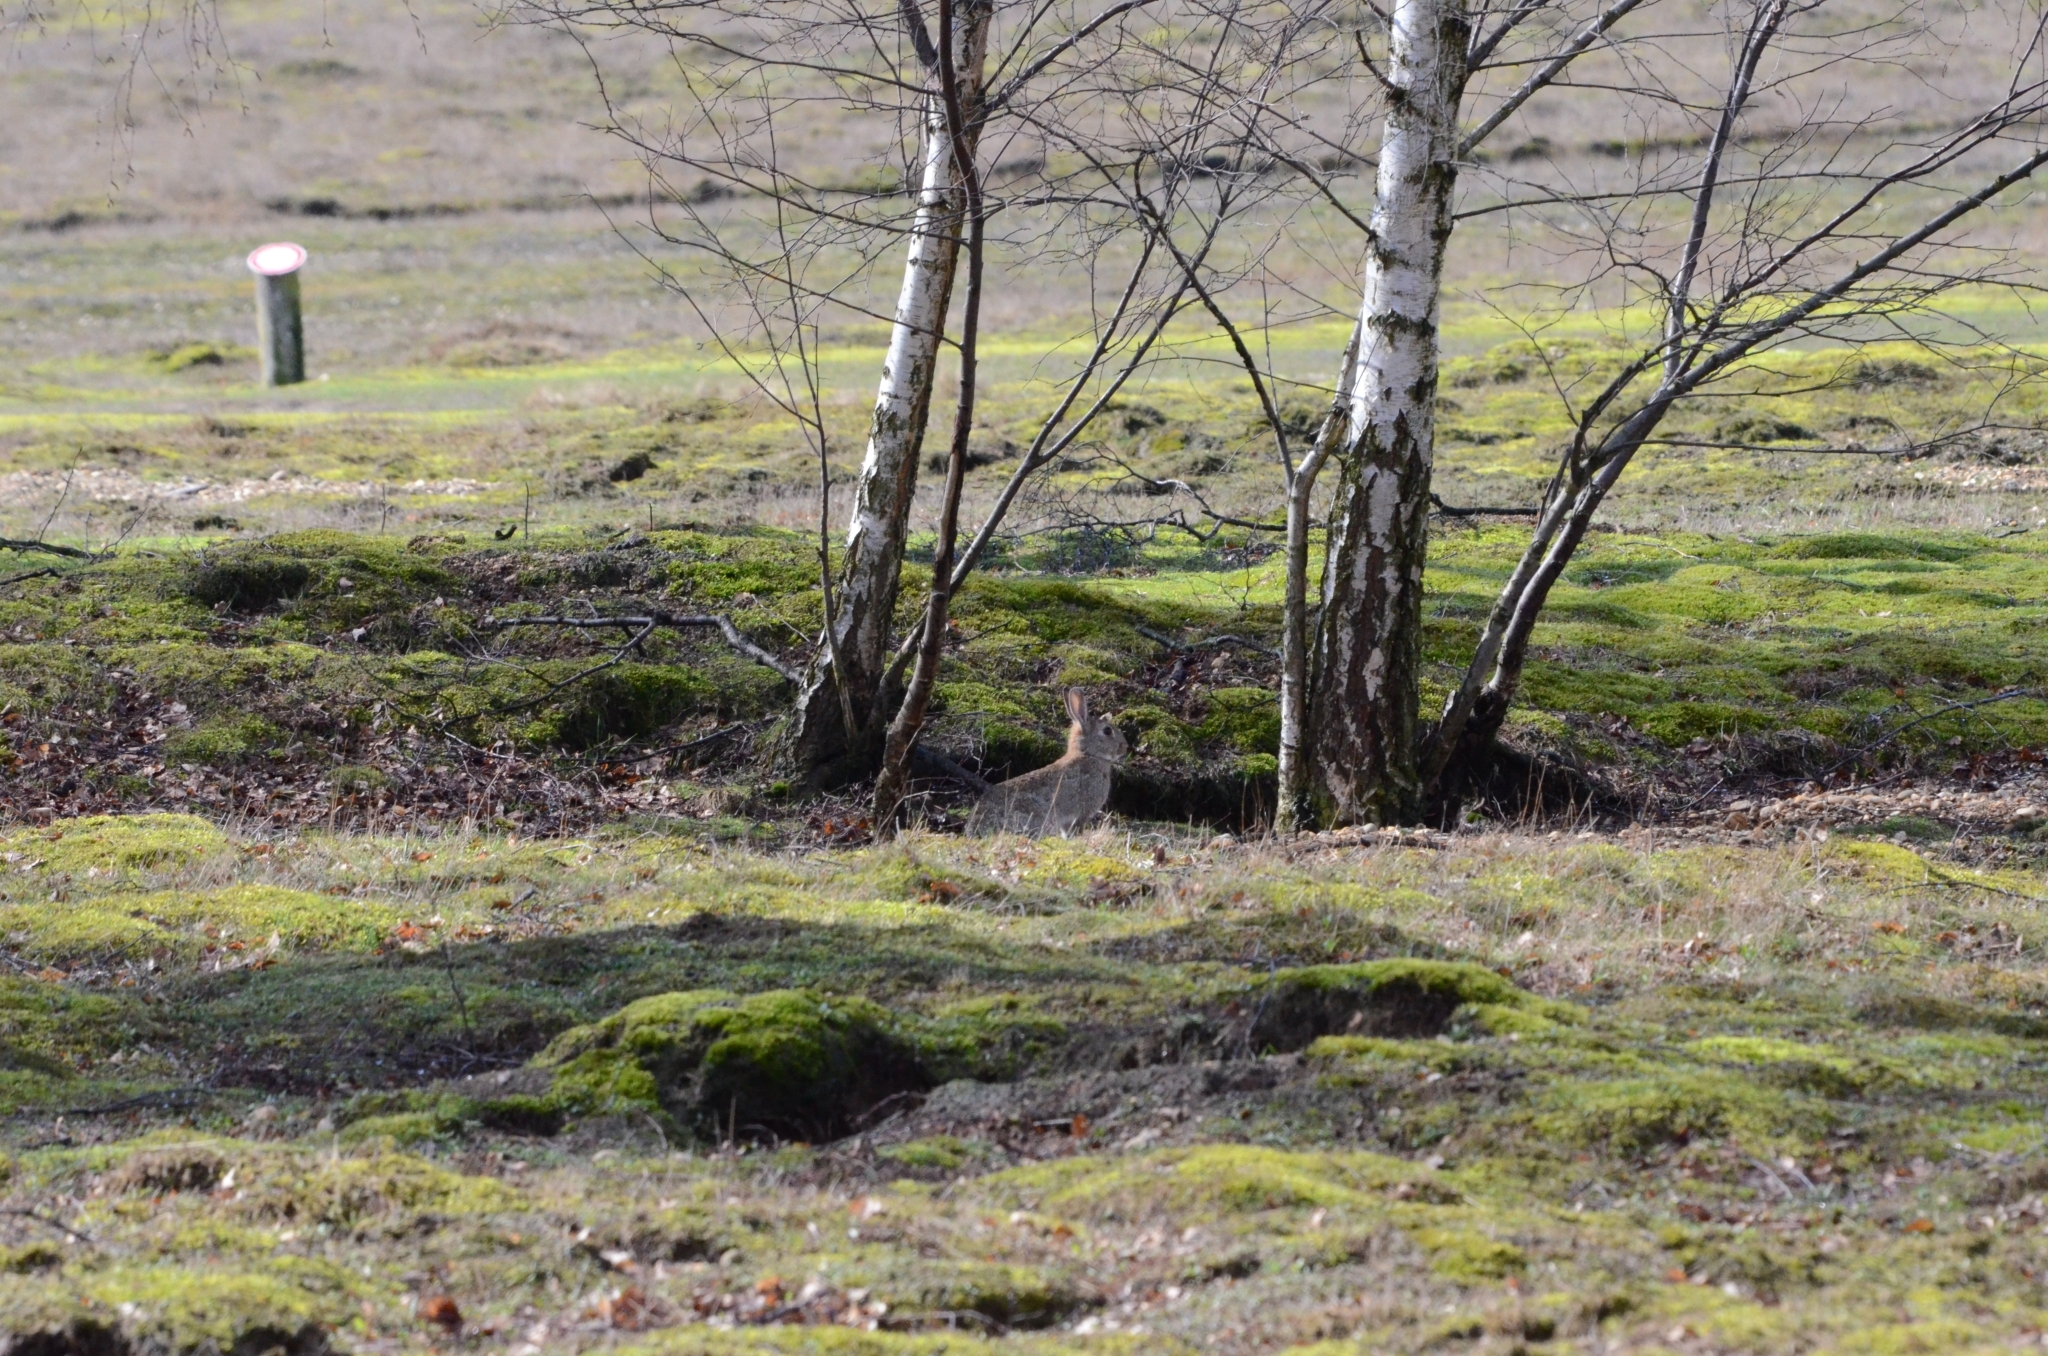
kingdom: Animalia
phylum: Chordata
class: Mammalia
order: Lagomorpha
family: Leporidae
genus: Oryctolagus
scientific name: Oryctolagus cuniculus
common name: European rabbit
